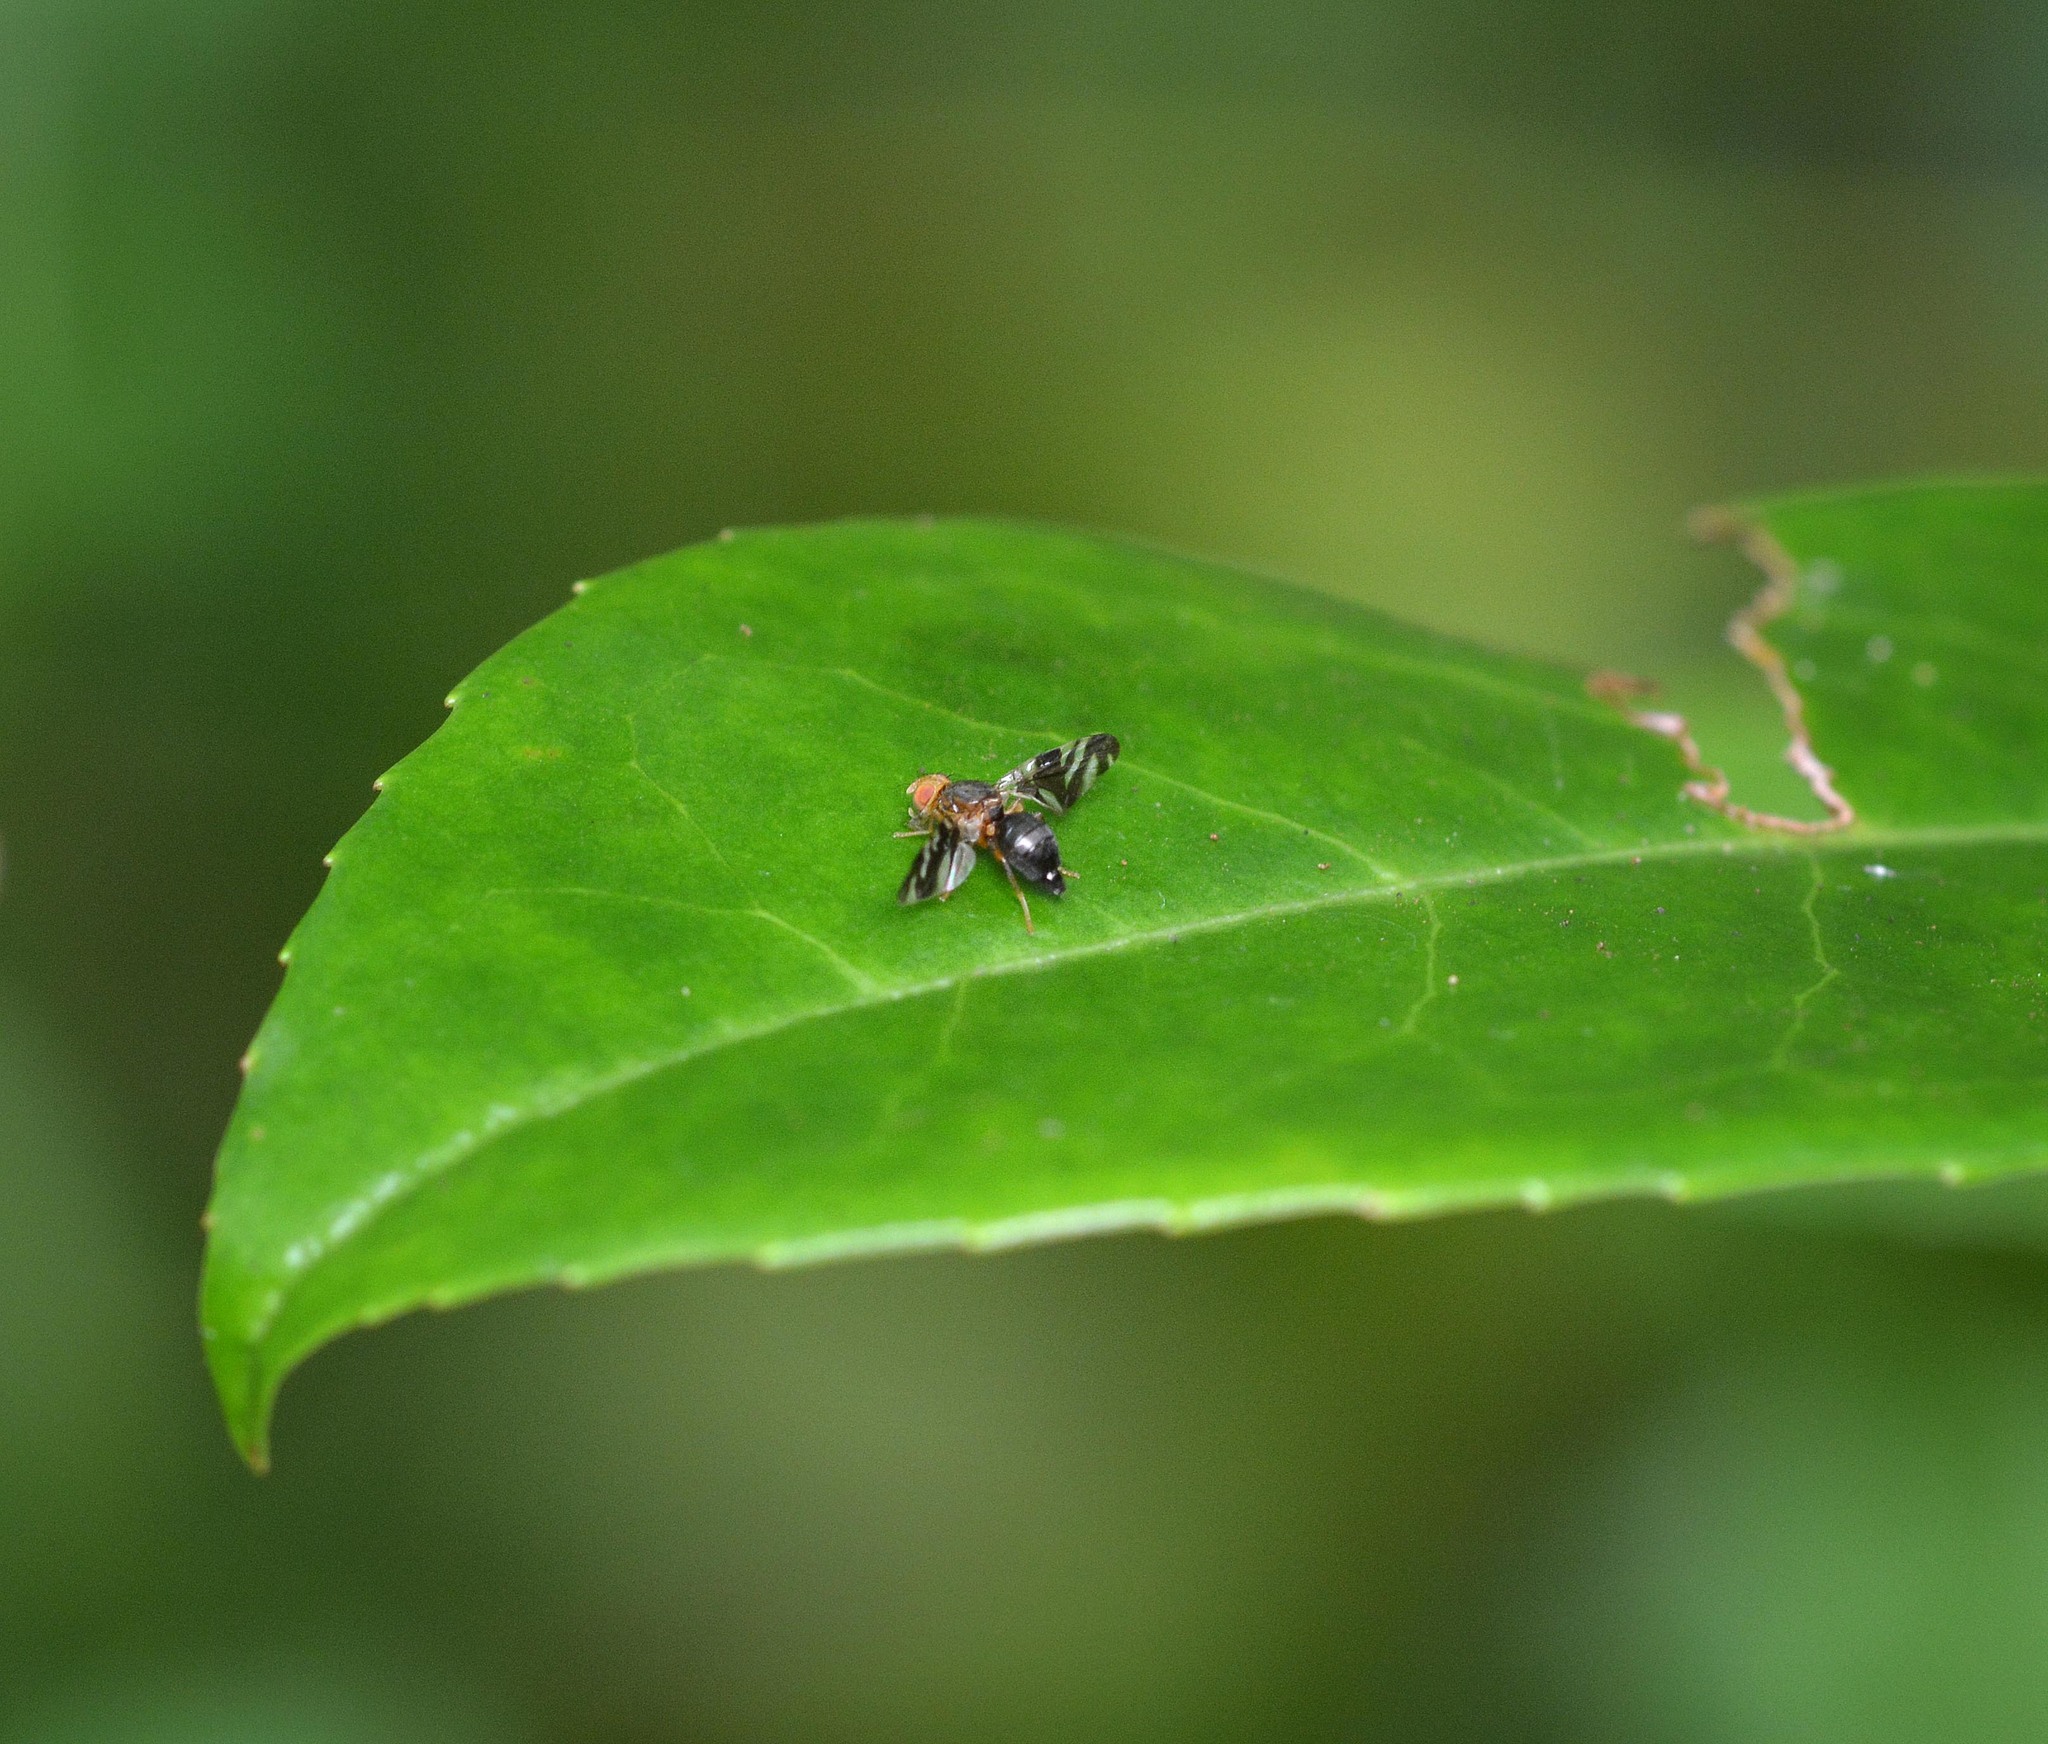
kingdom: Animalia
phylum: Arthropoda
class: Insecta
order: Diptera
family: Tephritidae
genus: Philophylla
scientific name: Philophylla caesio
